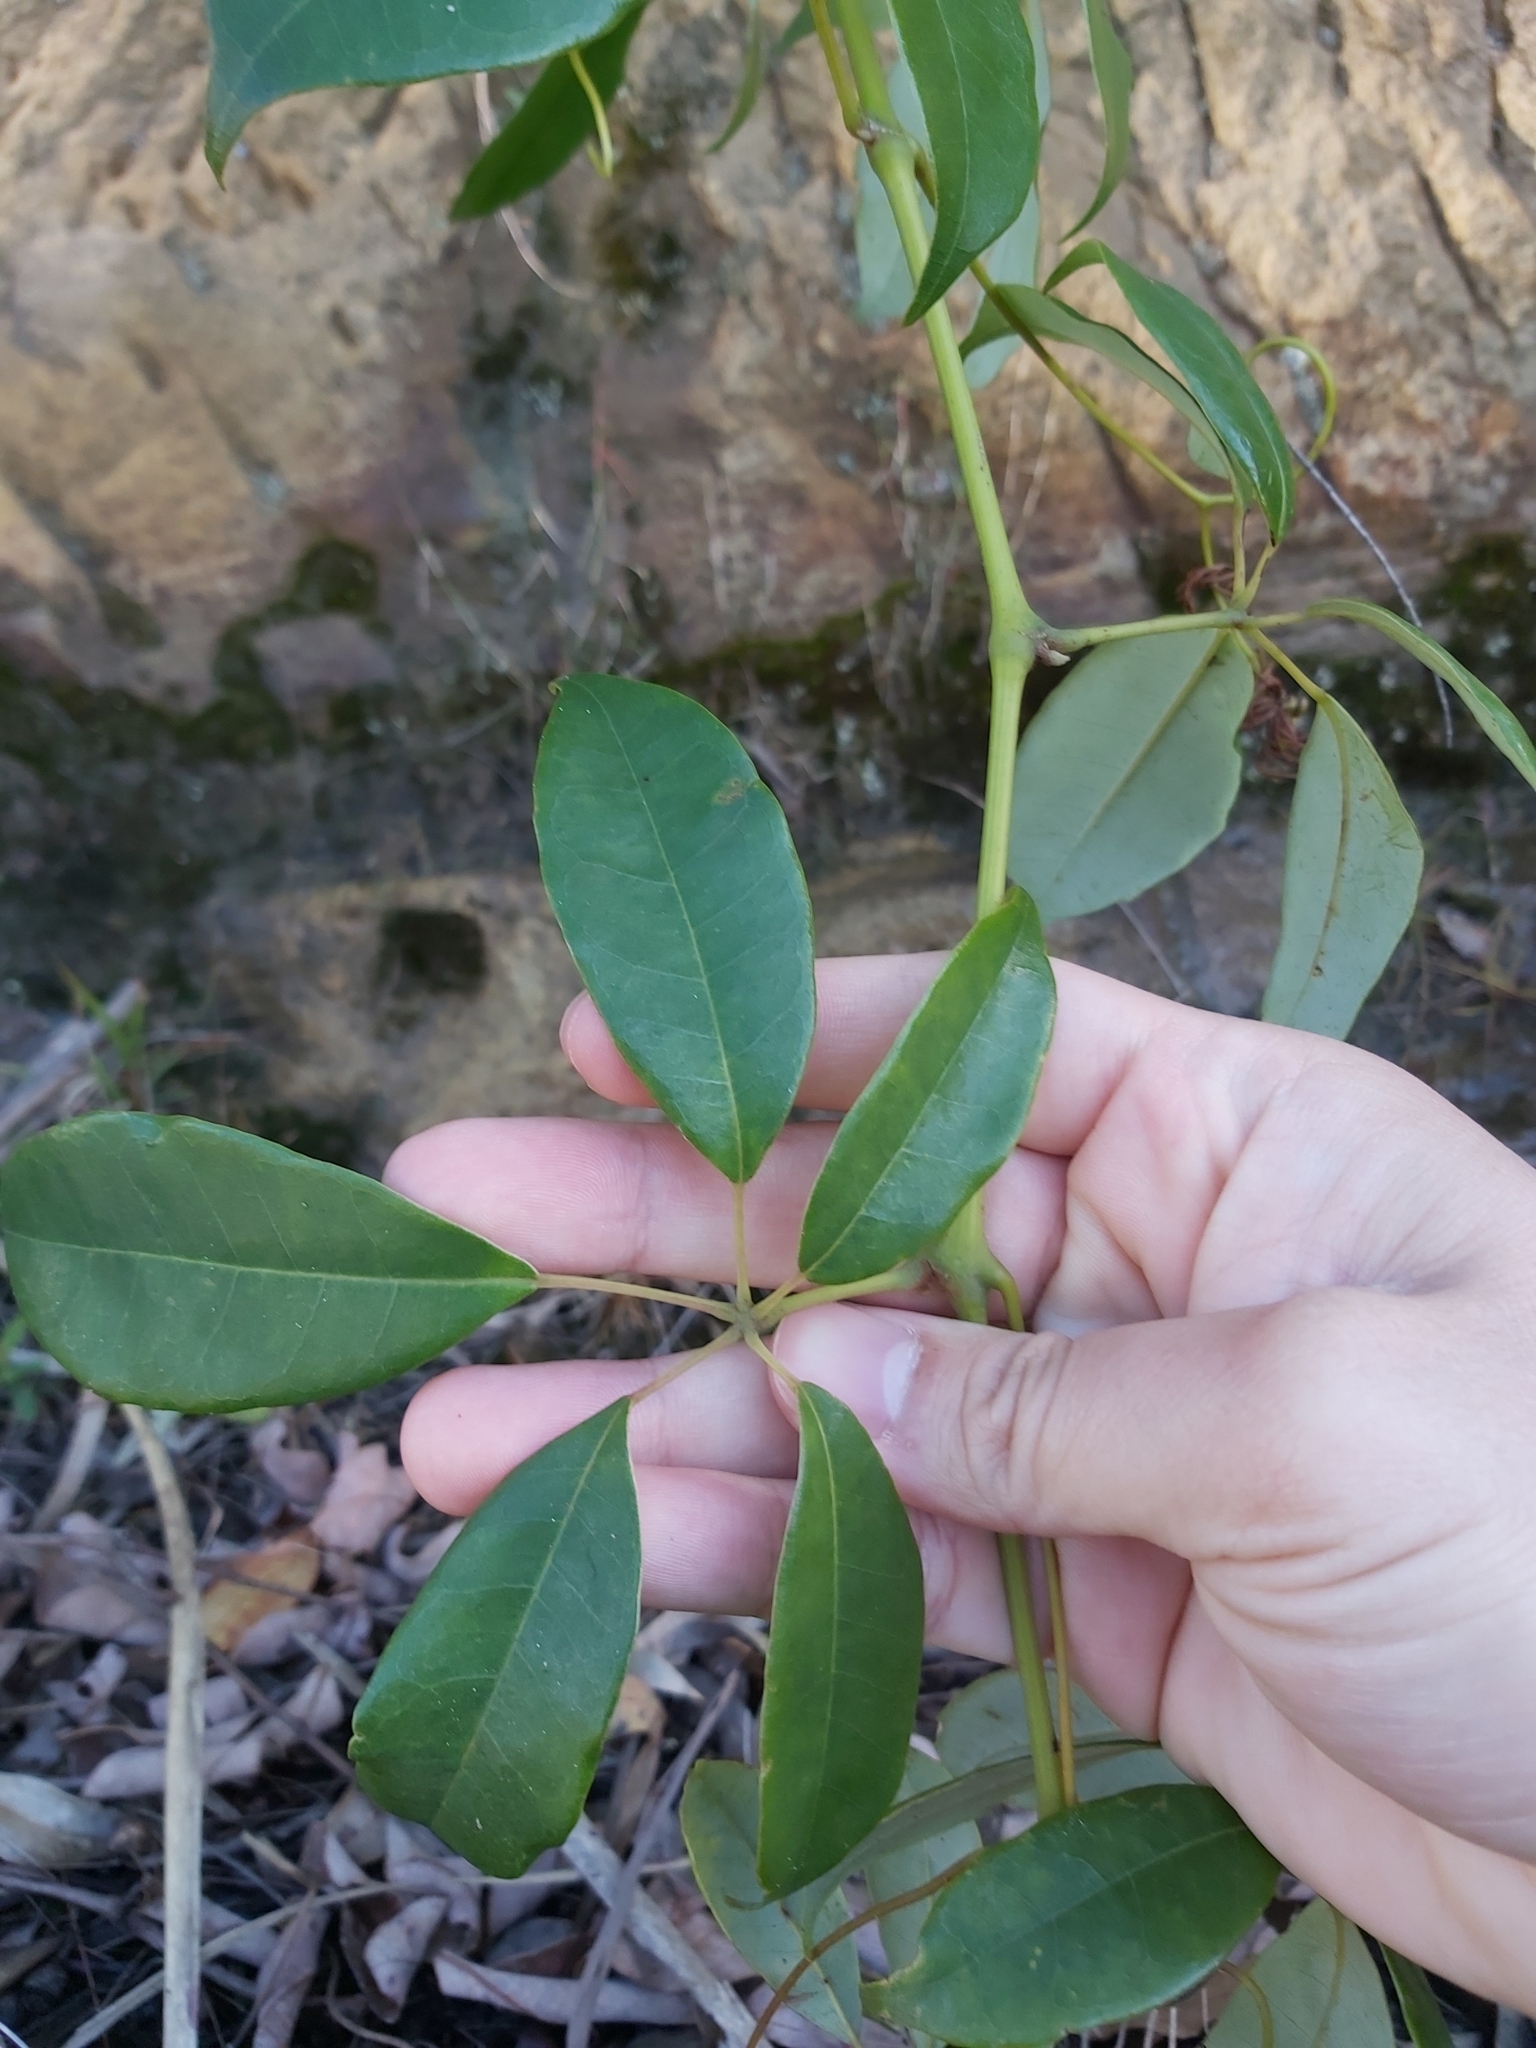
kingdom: Plantae
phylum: Tracheophyta
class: Magnoliopsida
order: Vitales
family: Vitaceae
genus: Nothocissus
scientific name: Nothocissus hypoglauca
